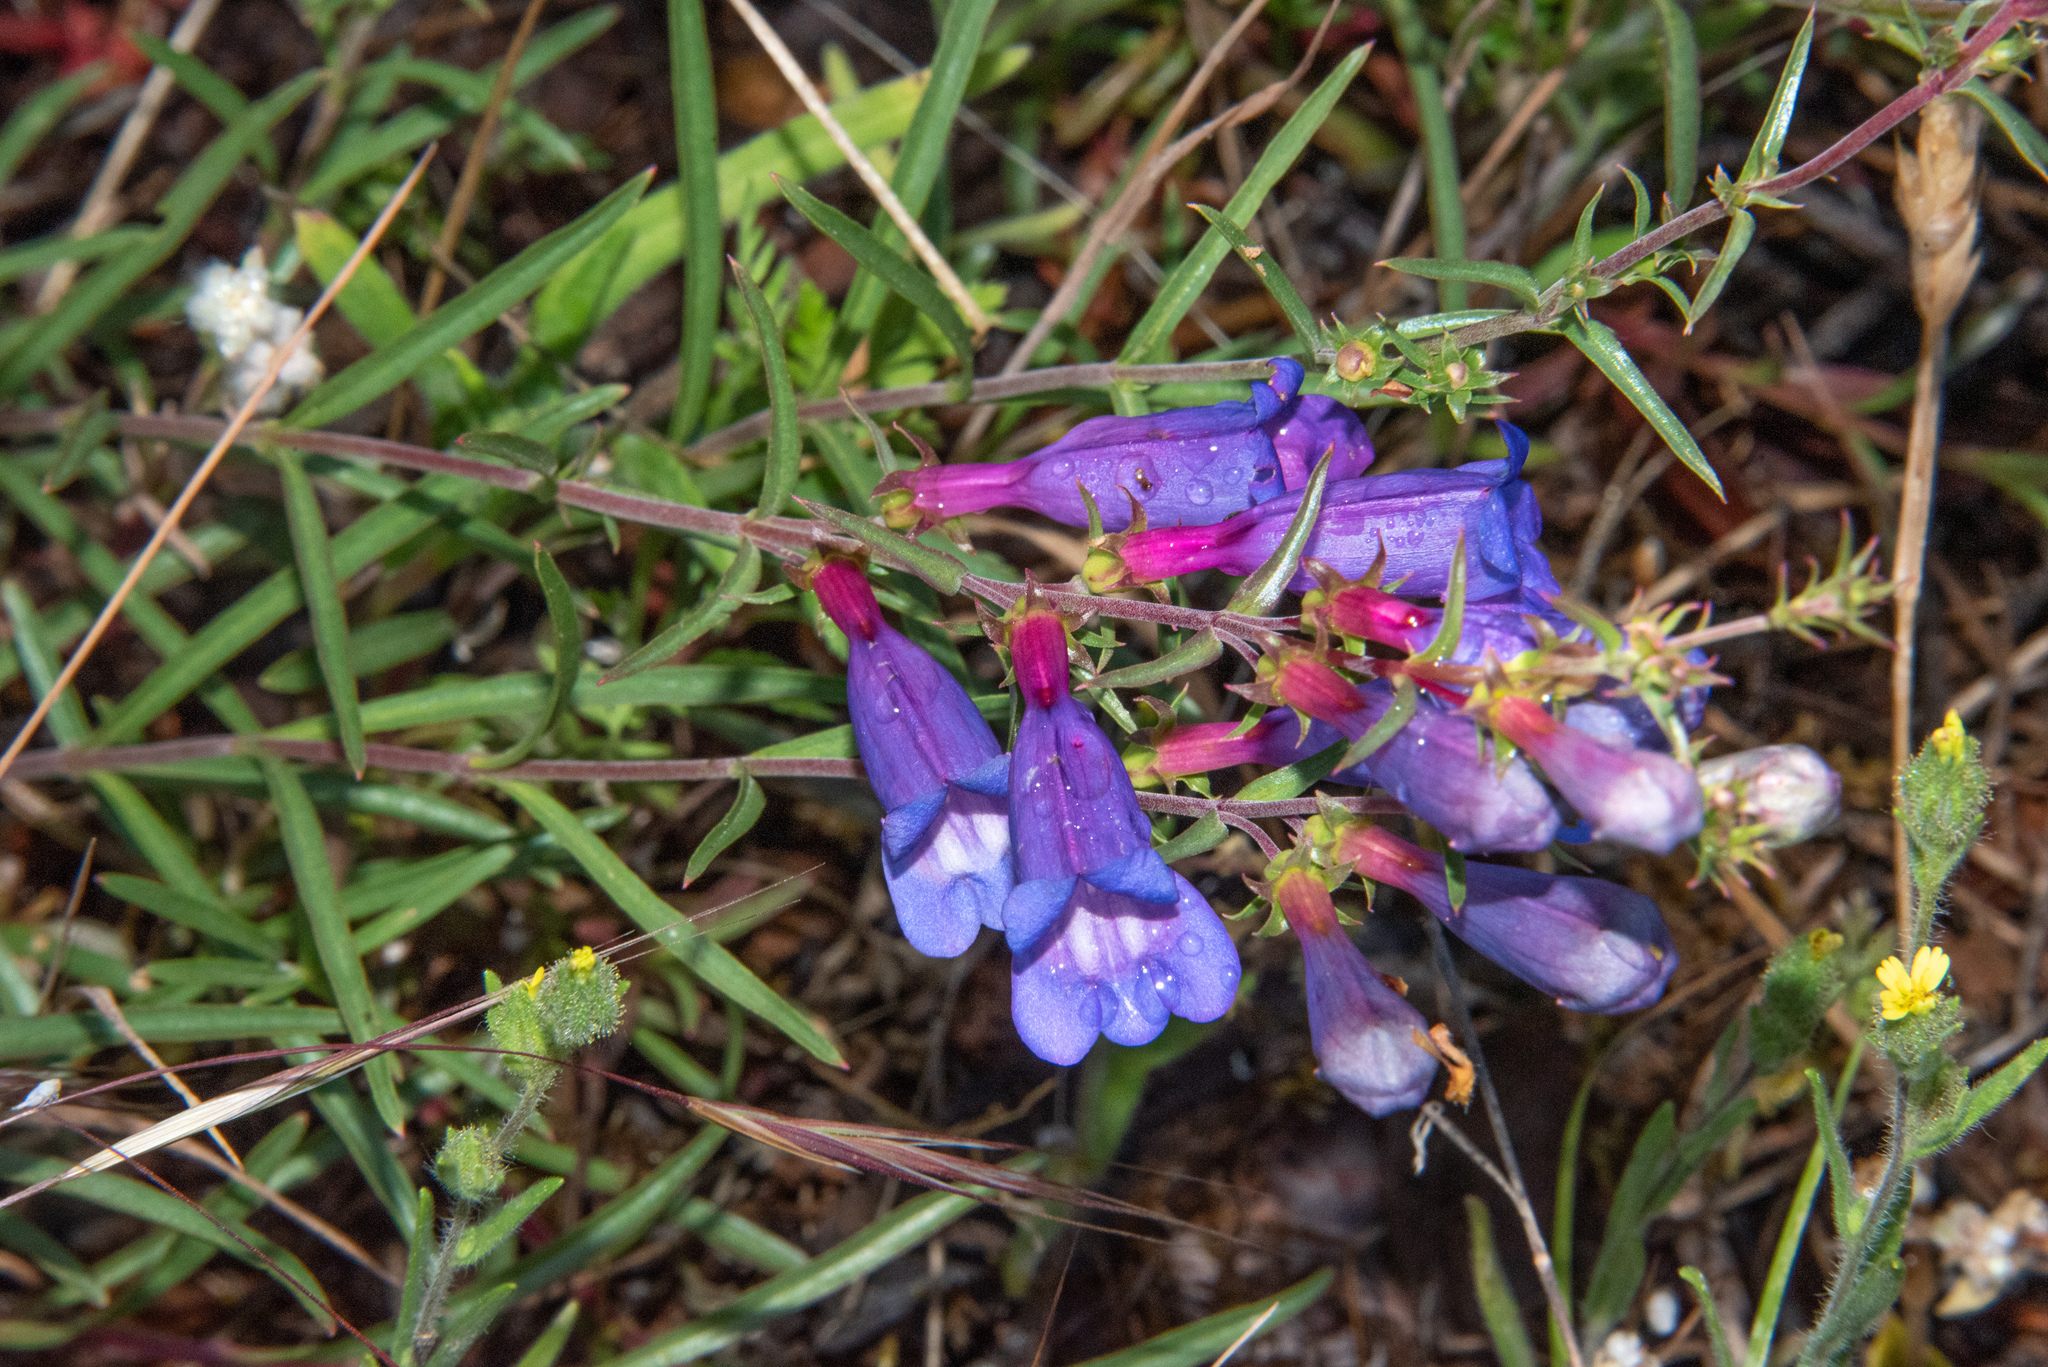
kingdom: Plantae
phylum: Tracheophyta
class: Magnoliopsida
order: Lamiales
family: Plantaginaceae
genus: Penstemon
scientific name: Penstemon heterophyllus
